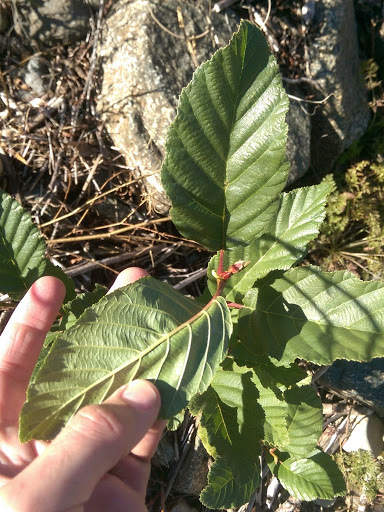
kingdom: Plantae
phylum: Tracheophyta
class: Magnoliopsida
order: Fagales
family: Betulaceae
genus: Alnus
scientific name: Alnus rhombifolia
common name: California alder
